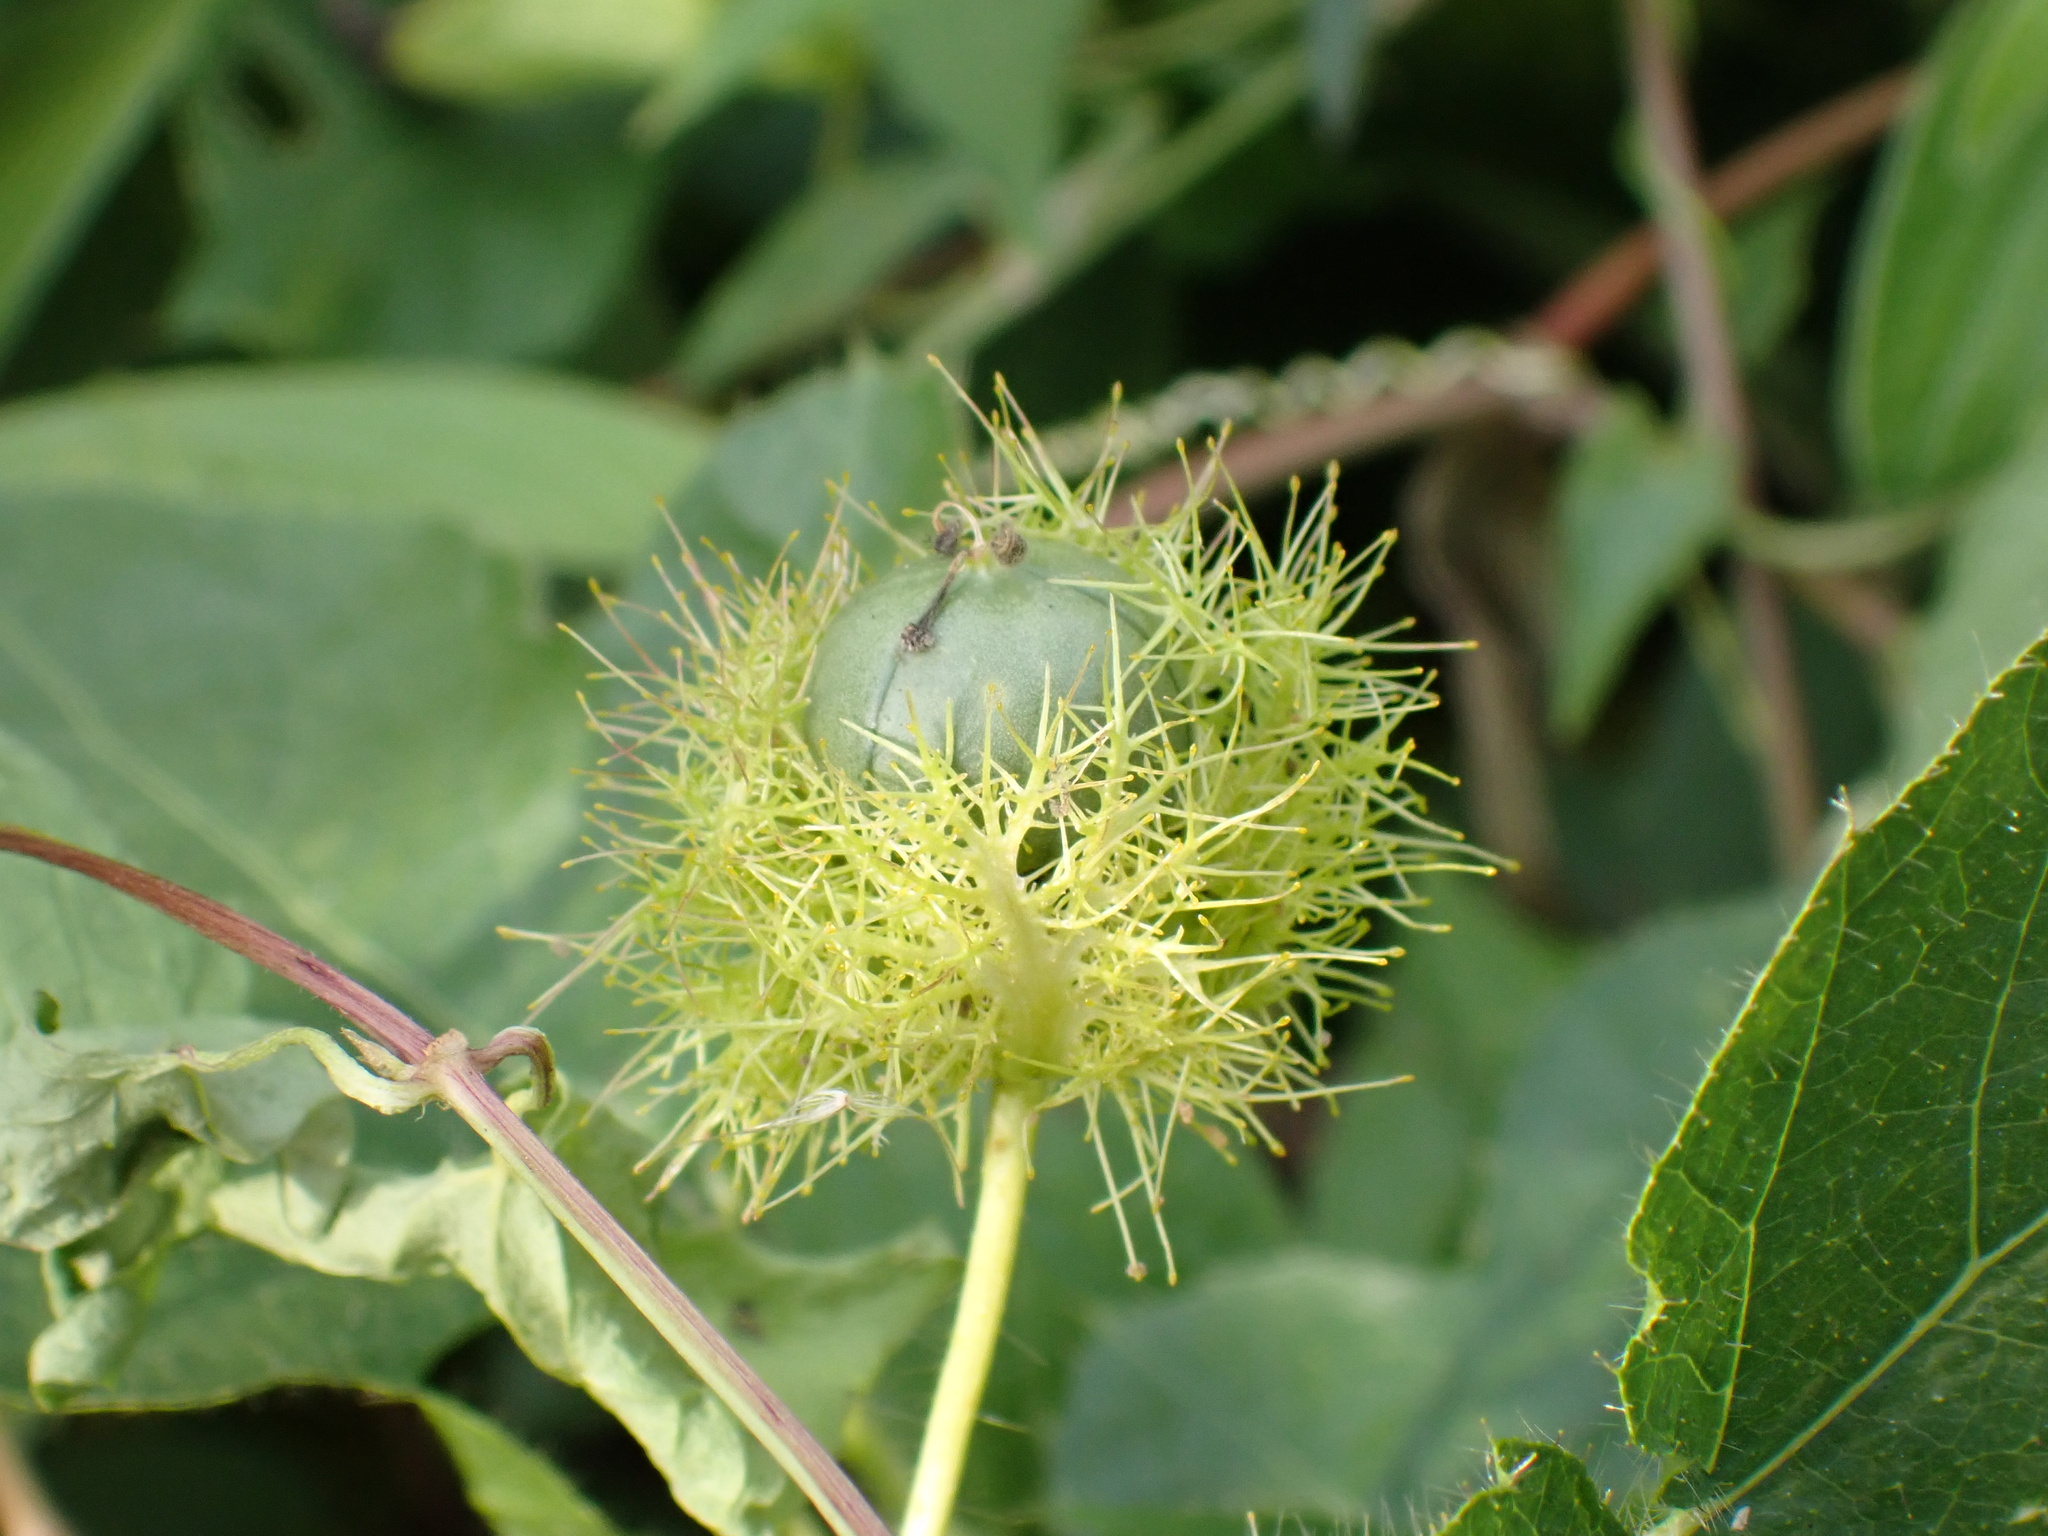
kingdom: Plantae
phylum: Tracheophyta
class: Magnoliopsida
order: Malpighiales
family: Passifloraceae
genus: Passiflora
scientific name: Passiflora vesicaria
